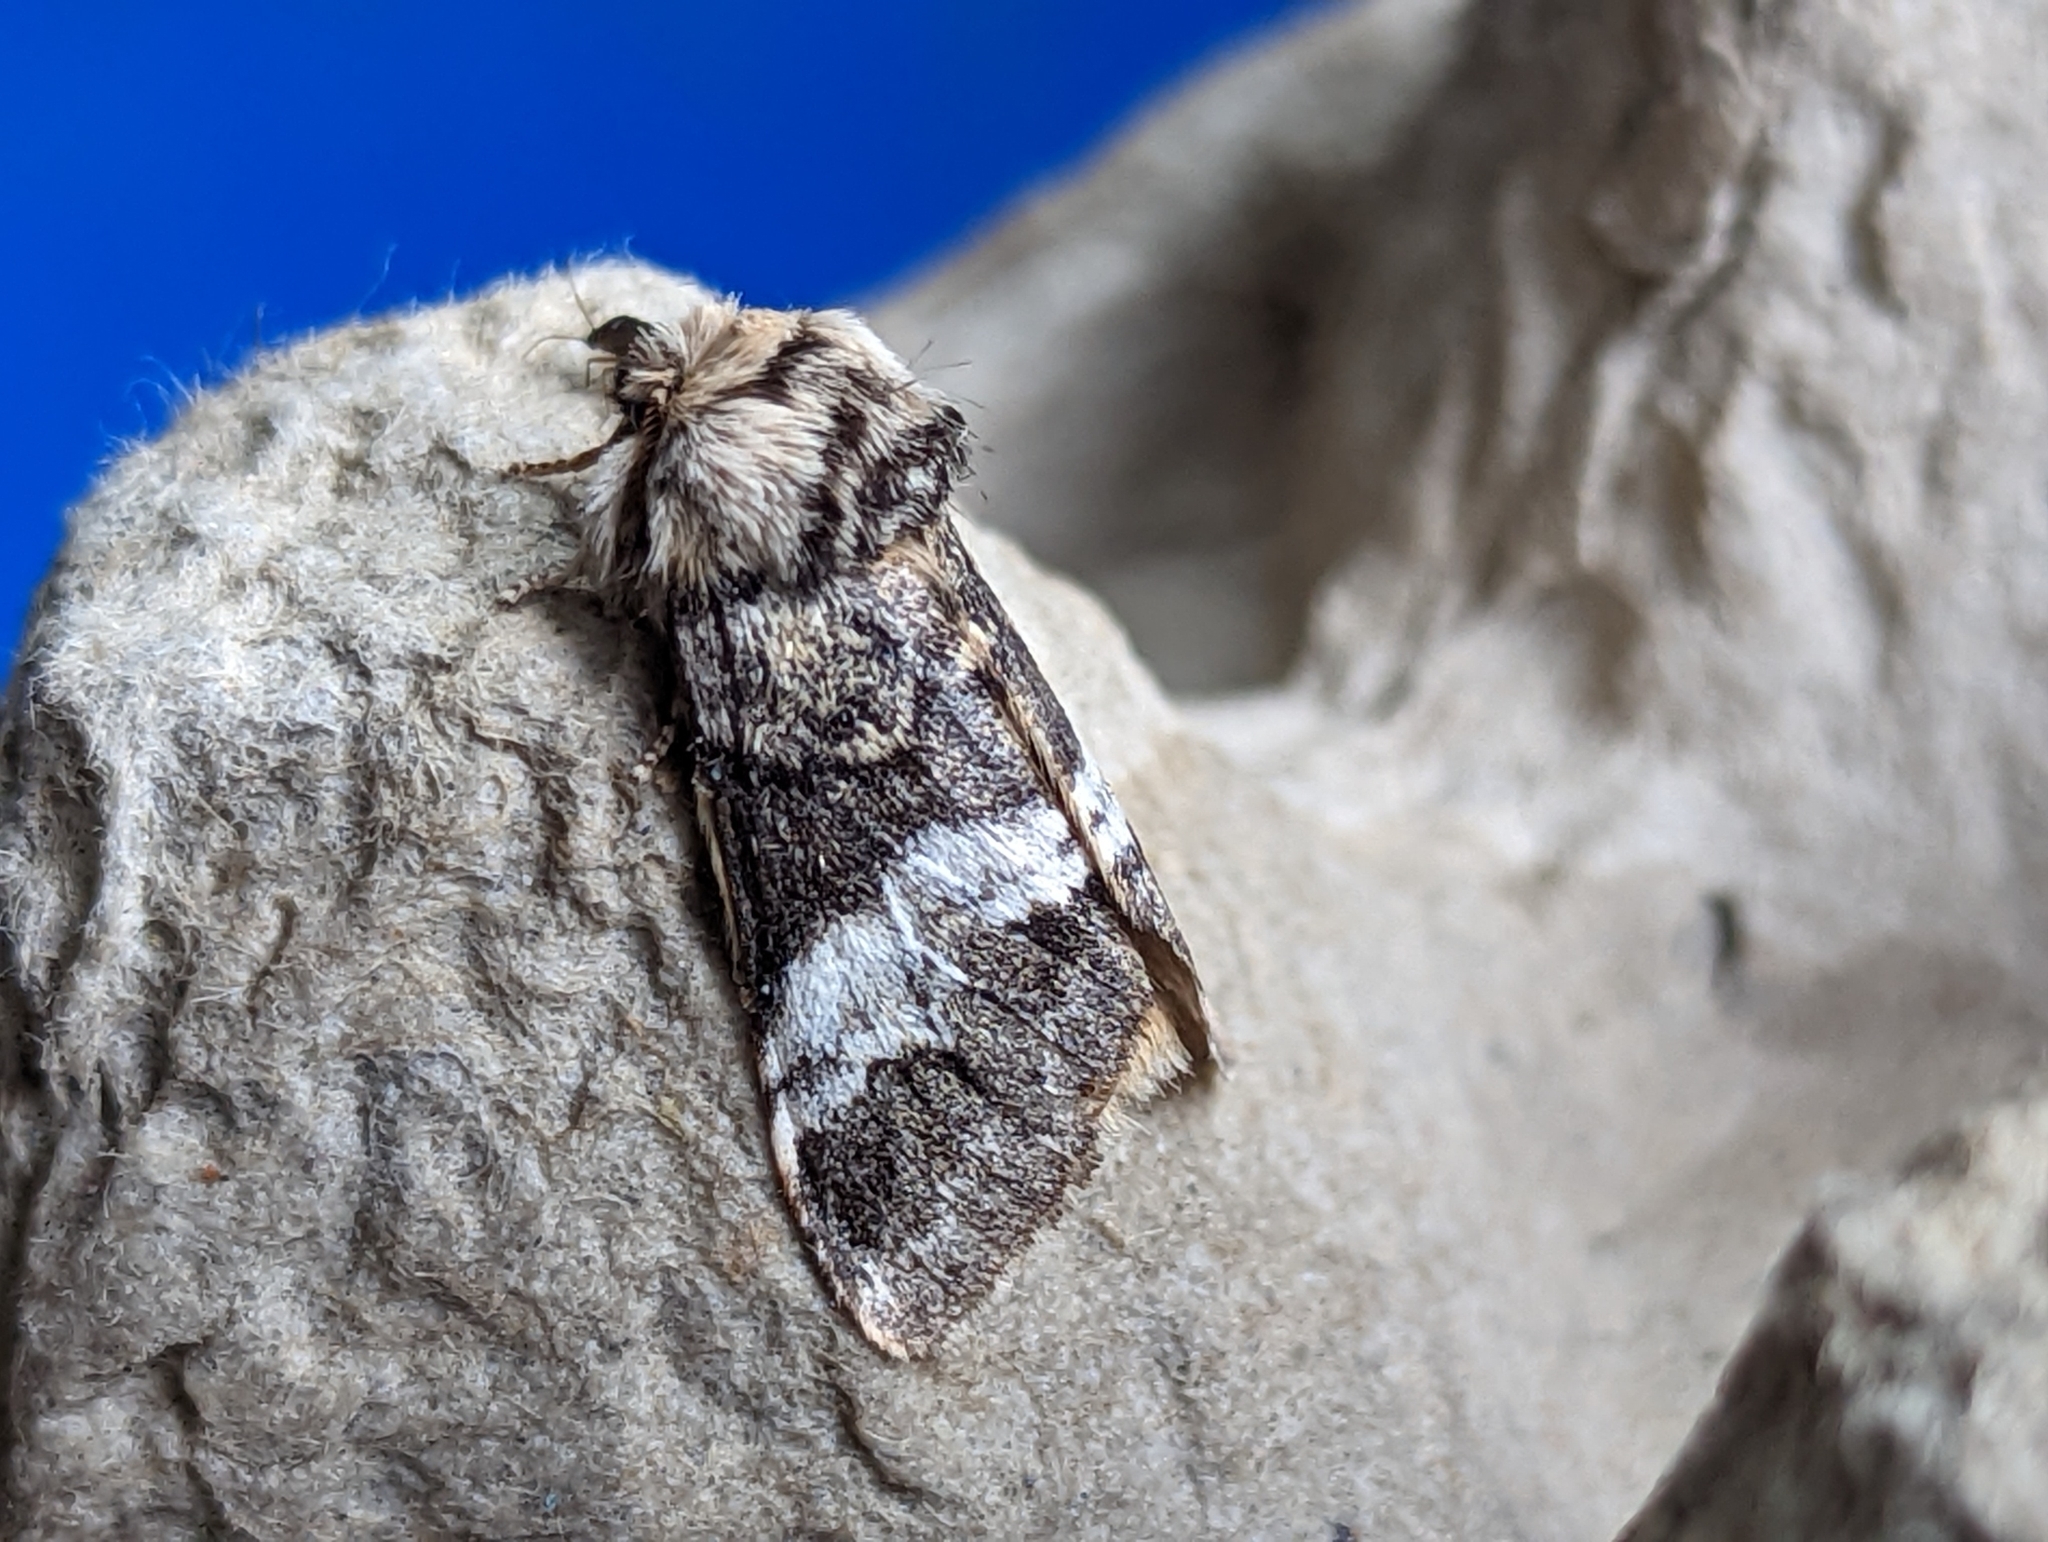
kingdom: Animalia
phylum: Arthropoda
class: Insecta
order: Lepidoptera
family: Notodontidae
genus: Drymonia
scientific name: Drymonia dodonaea
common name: Marbled brown
